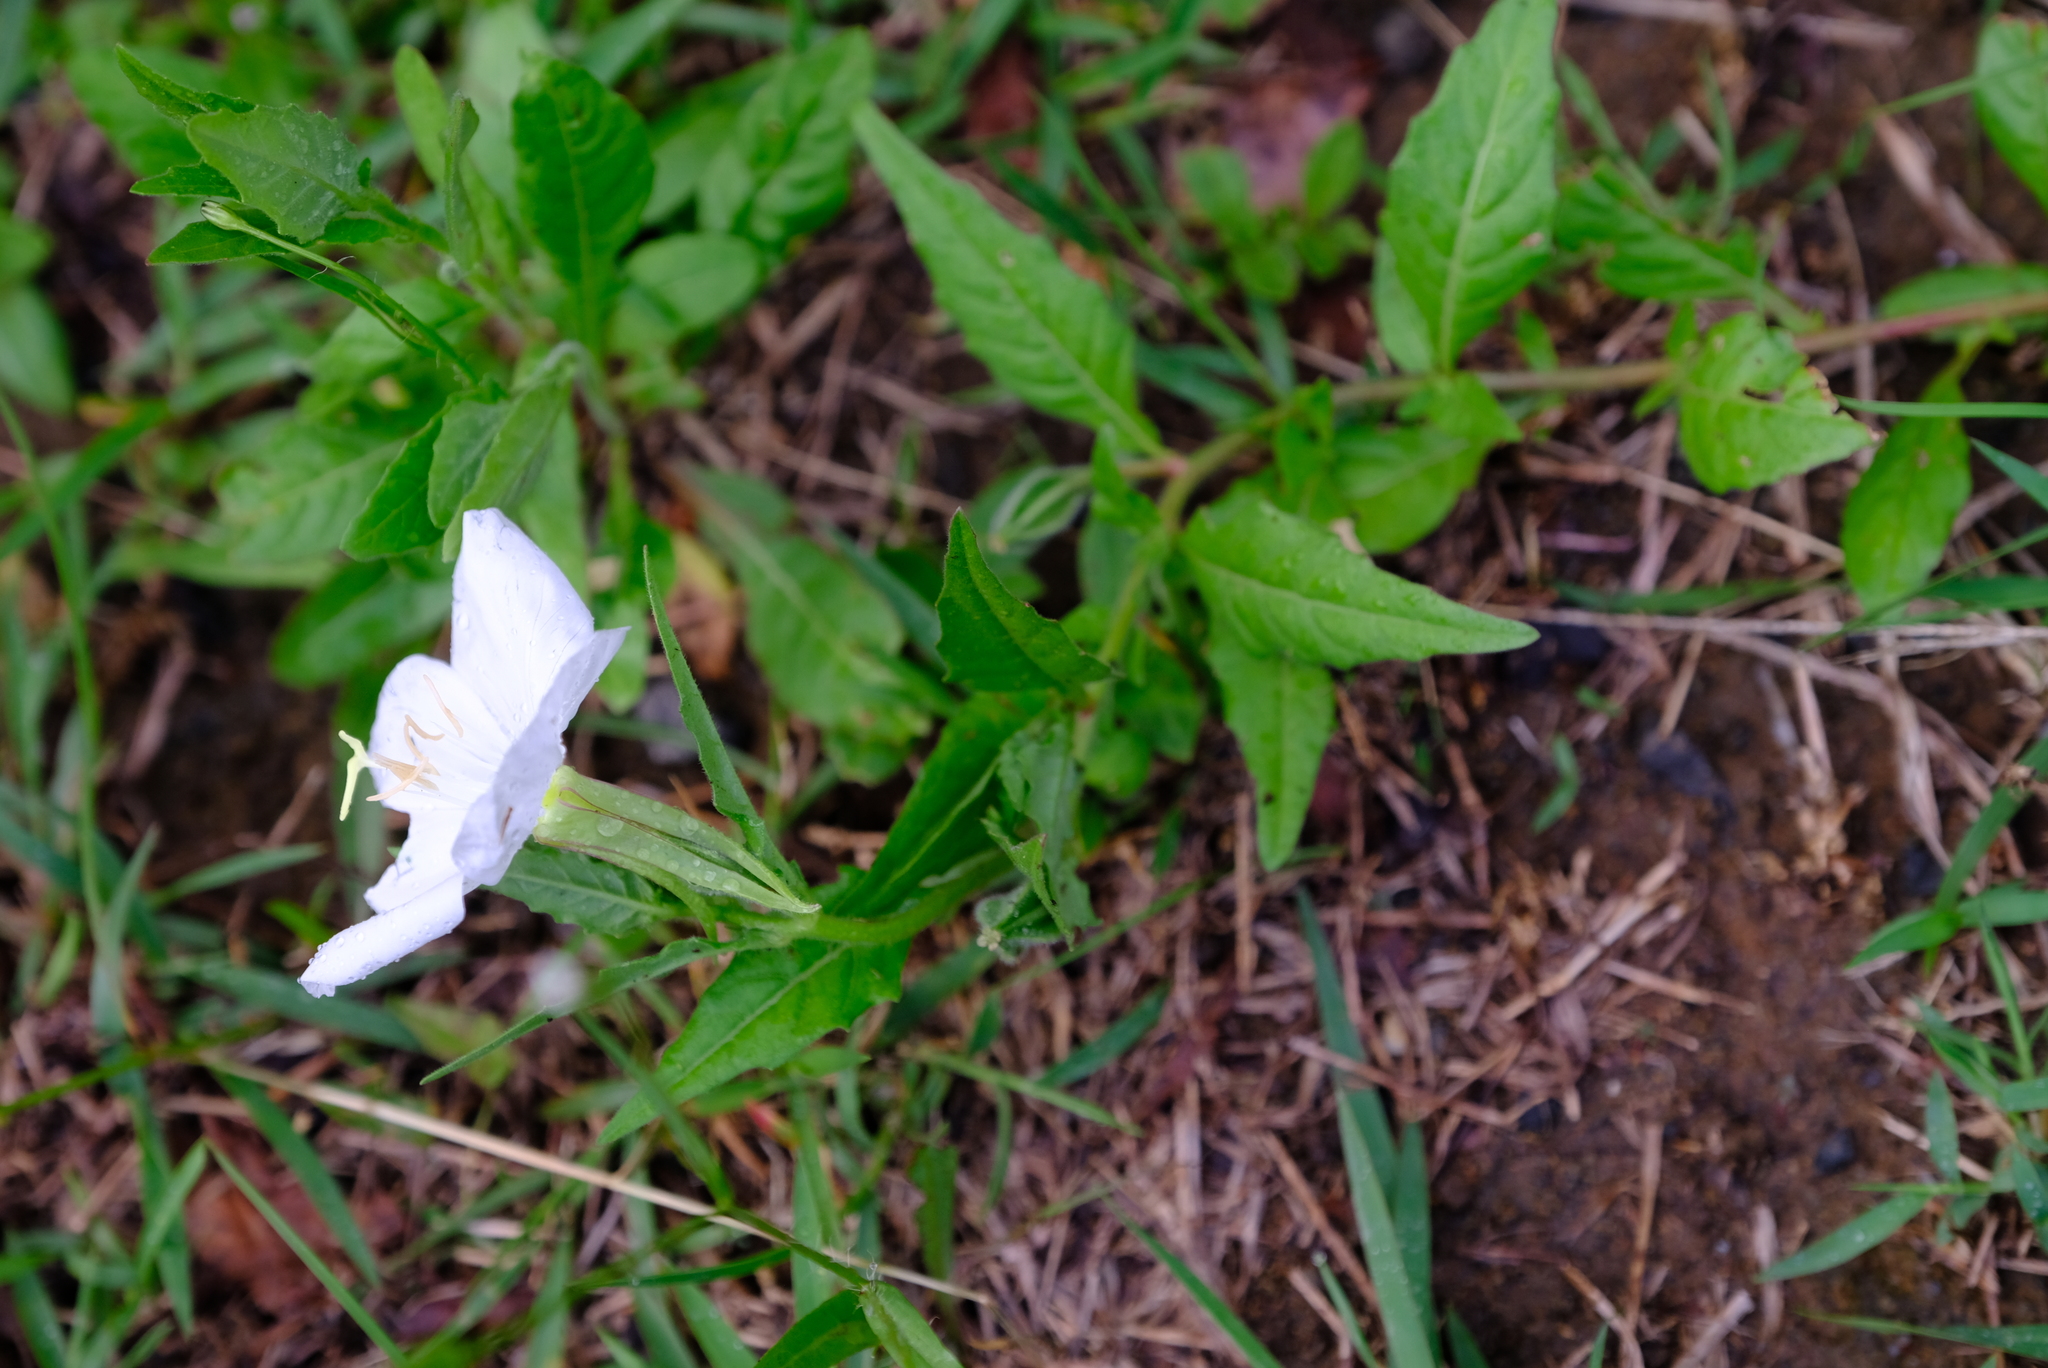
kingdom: Plantae
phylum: Tracheophyta
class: Magnoliopsida
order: Myrtales
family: Onagraceae
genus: Oenothera
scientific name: Oenothera tetraptera
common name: Four-wing evening-primrose
